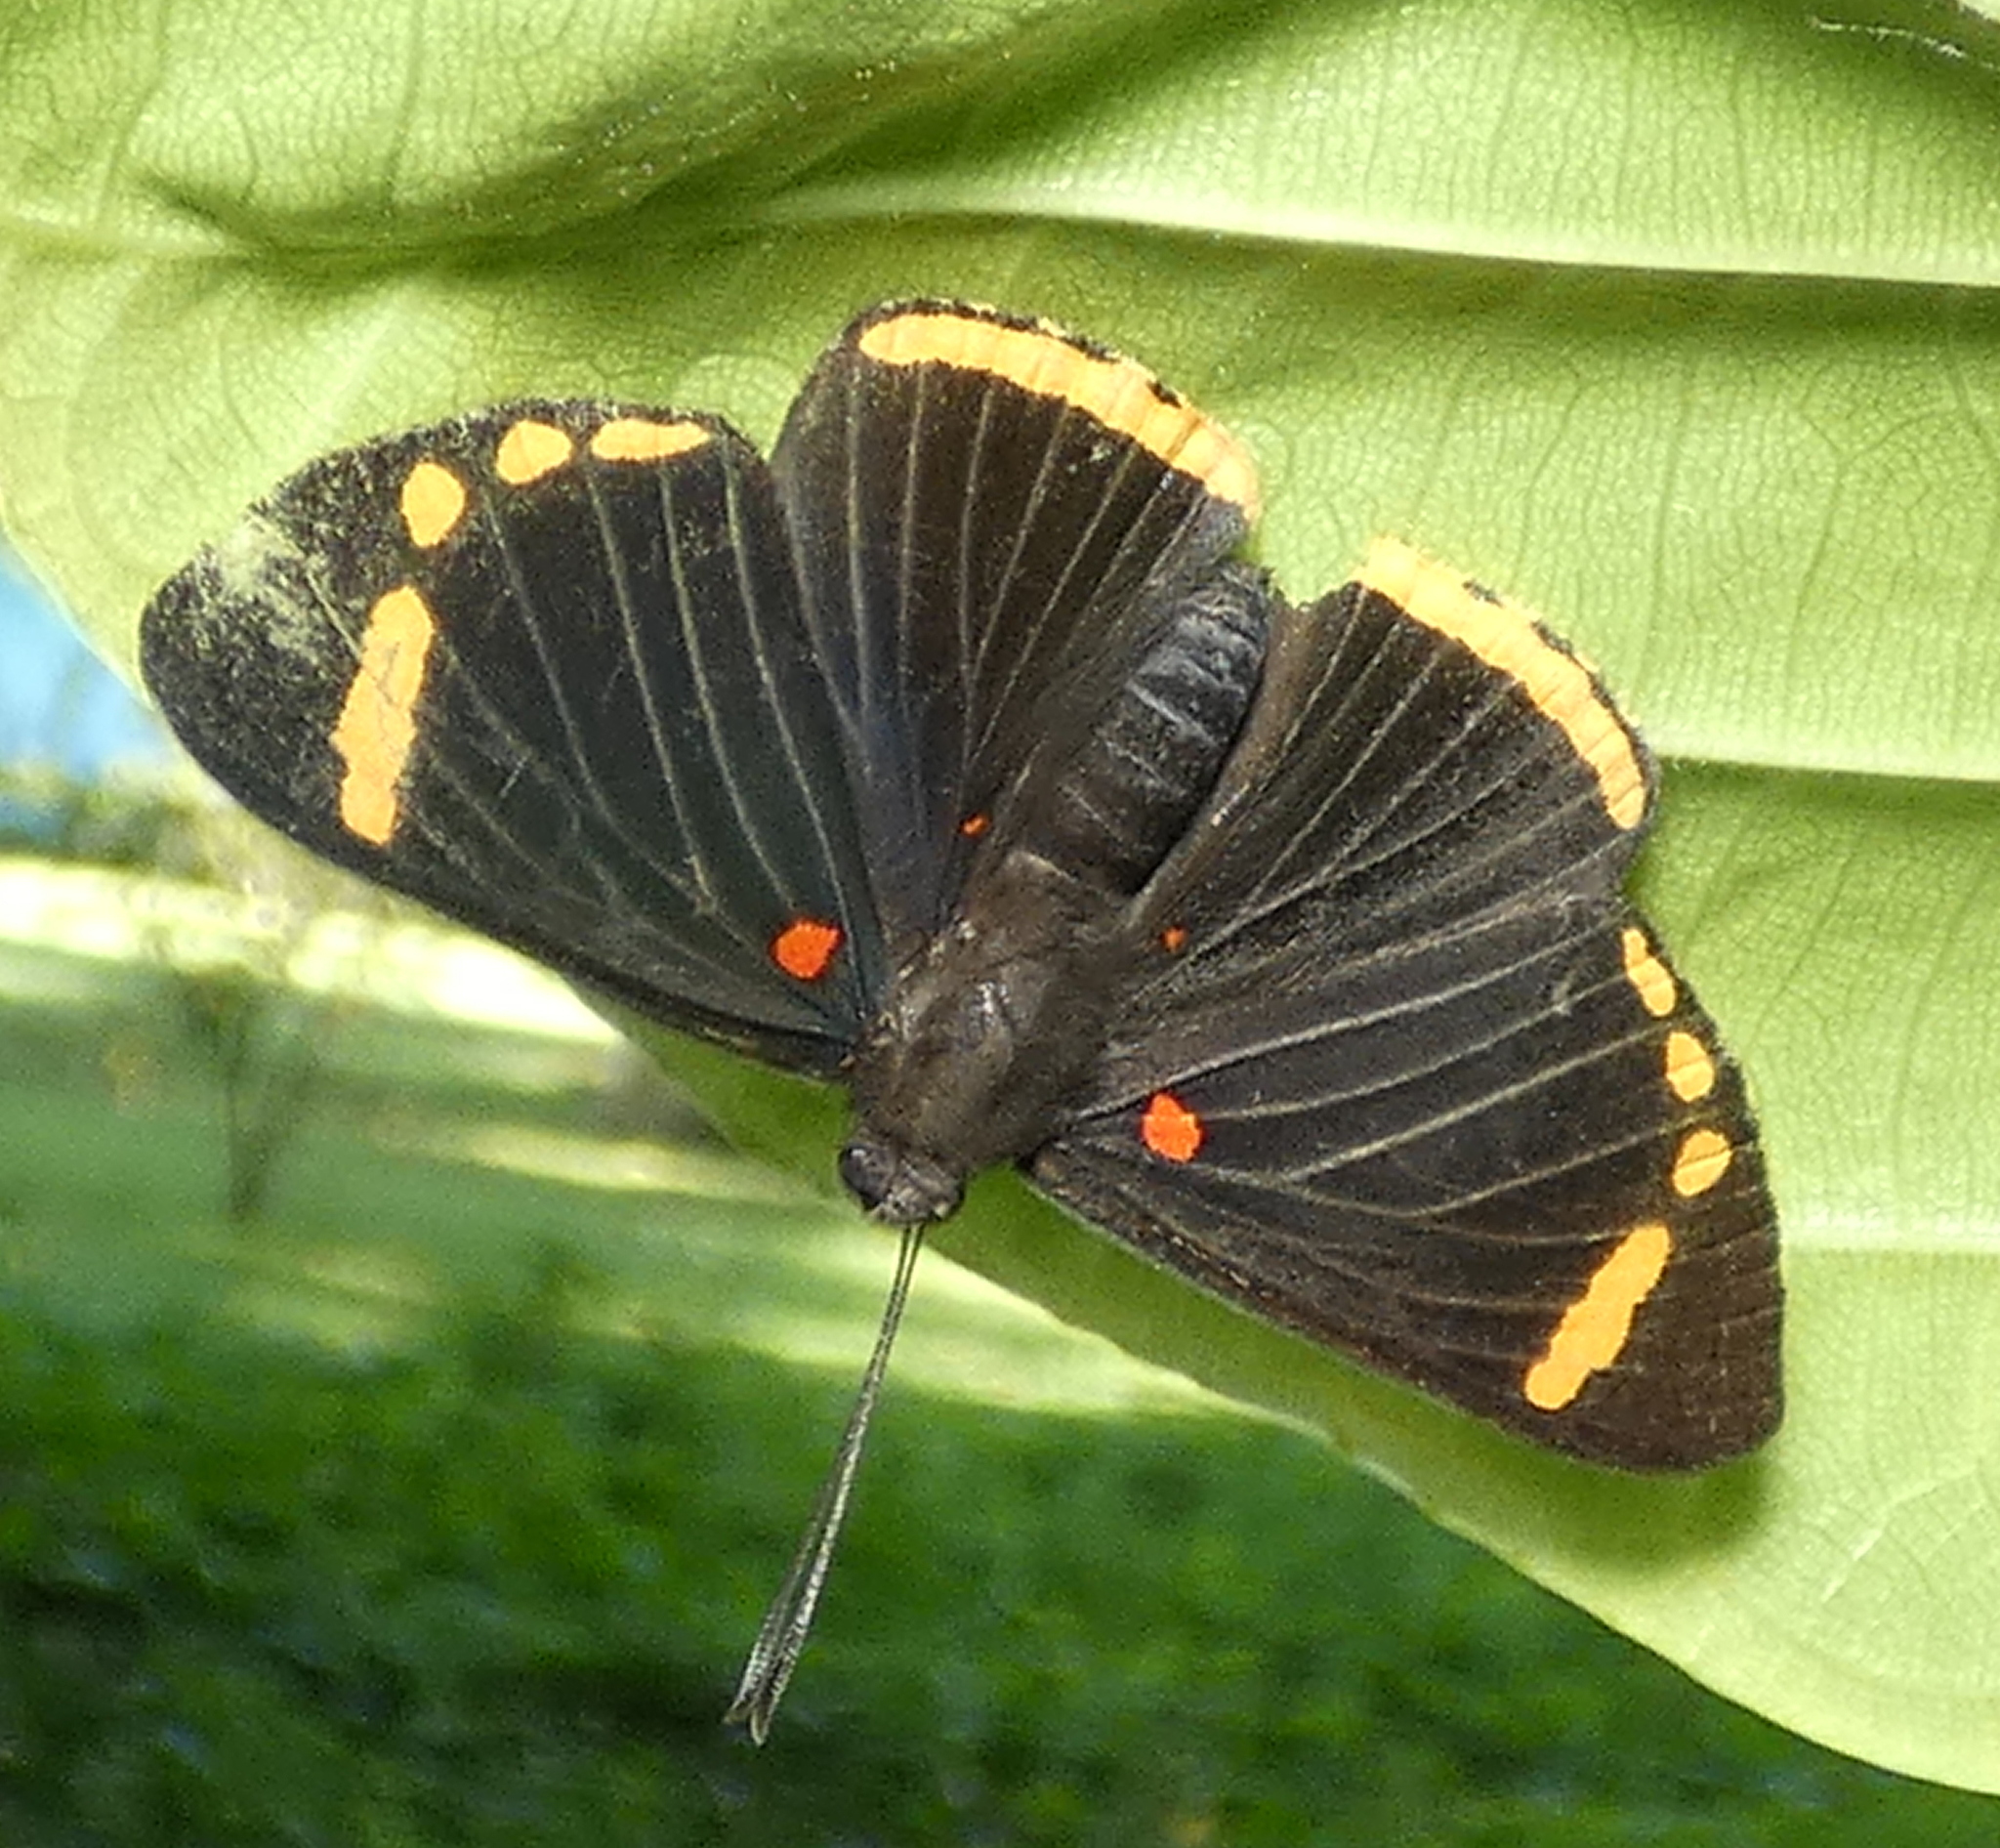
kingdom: Animalia
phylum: Arthropoda
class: Insecta
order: Lepidoptera
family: Lycaenidae
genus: Melanis
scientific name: Melanis xenia
